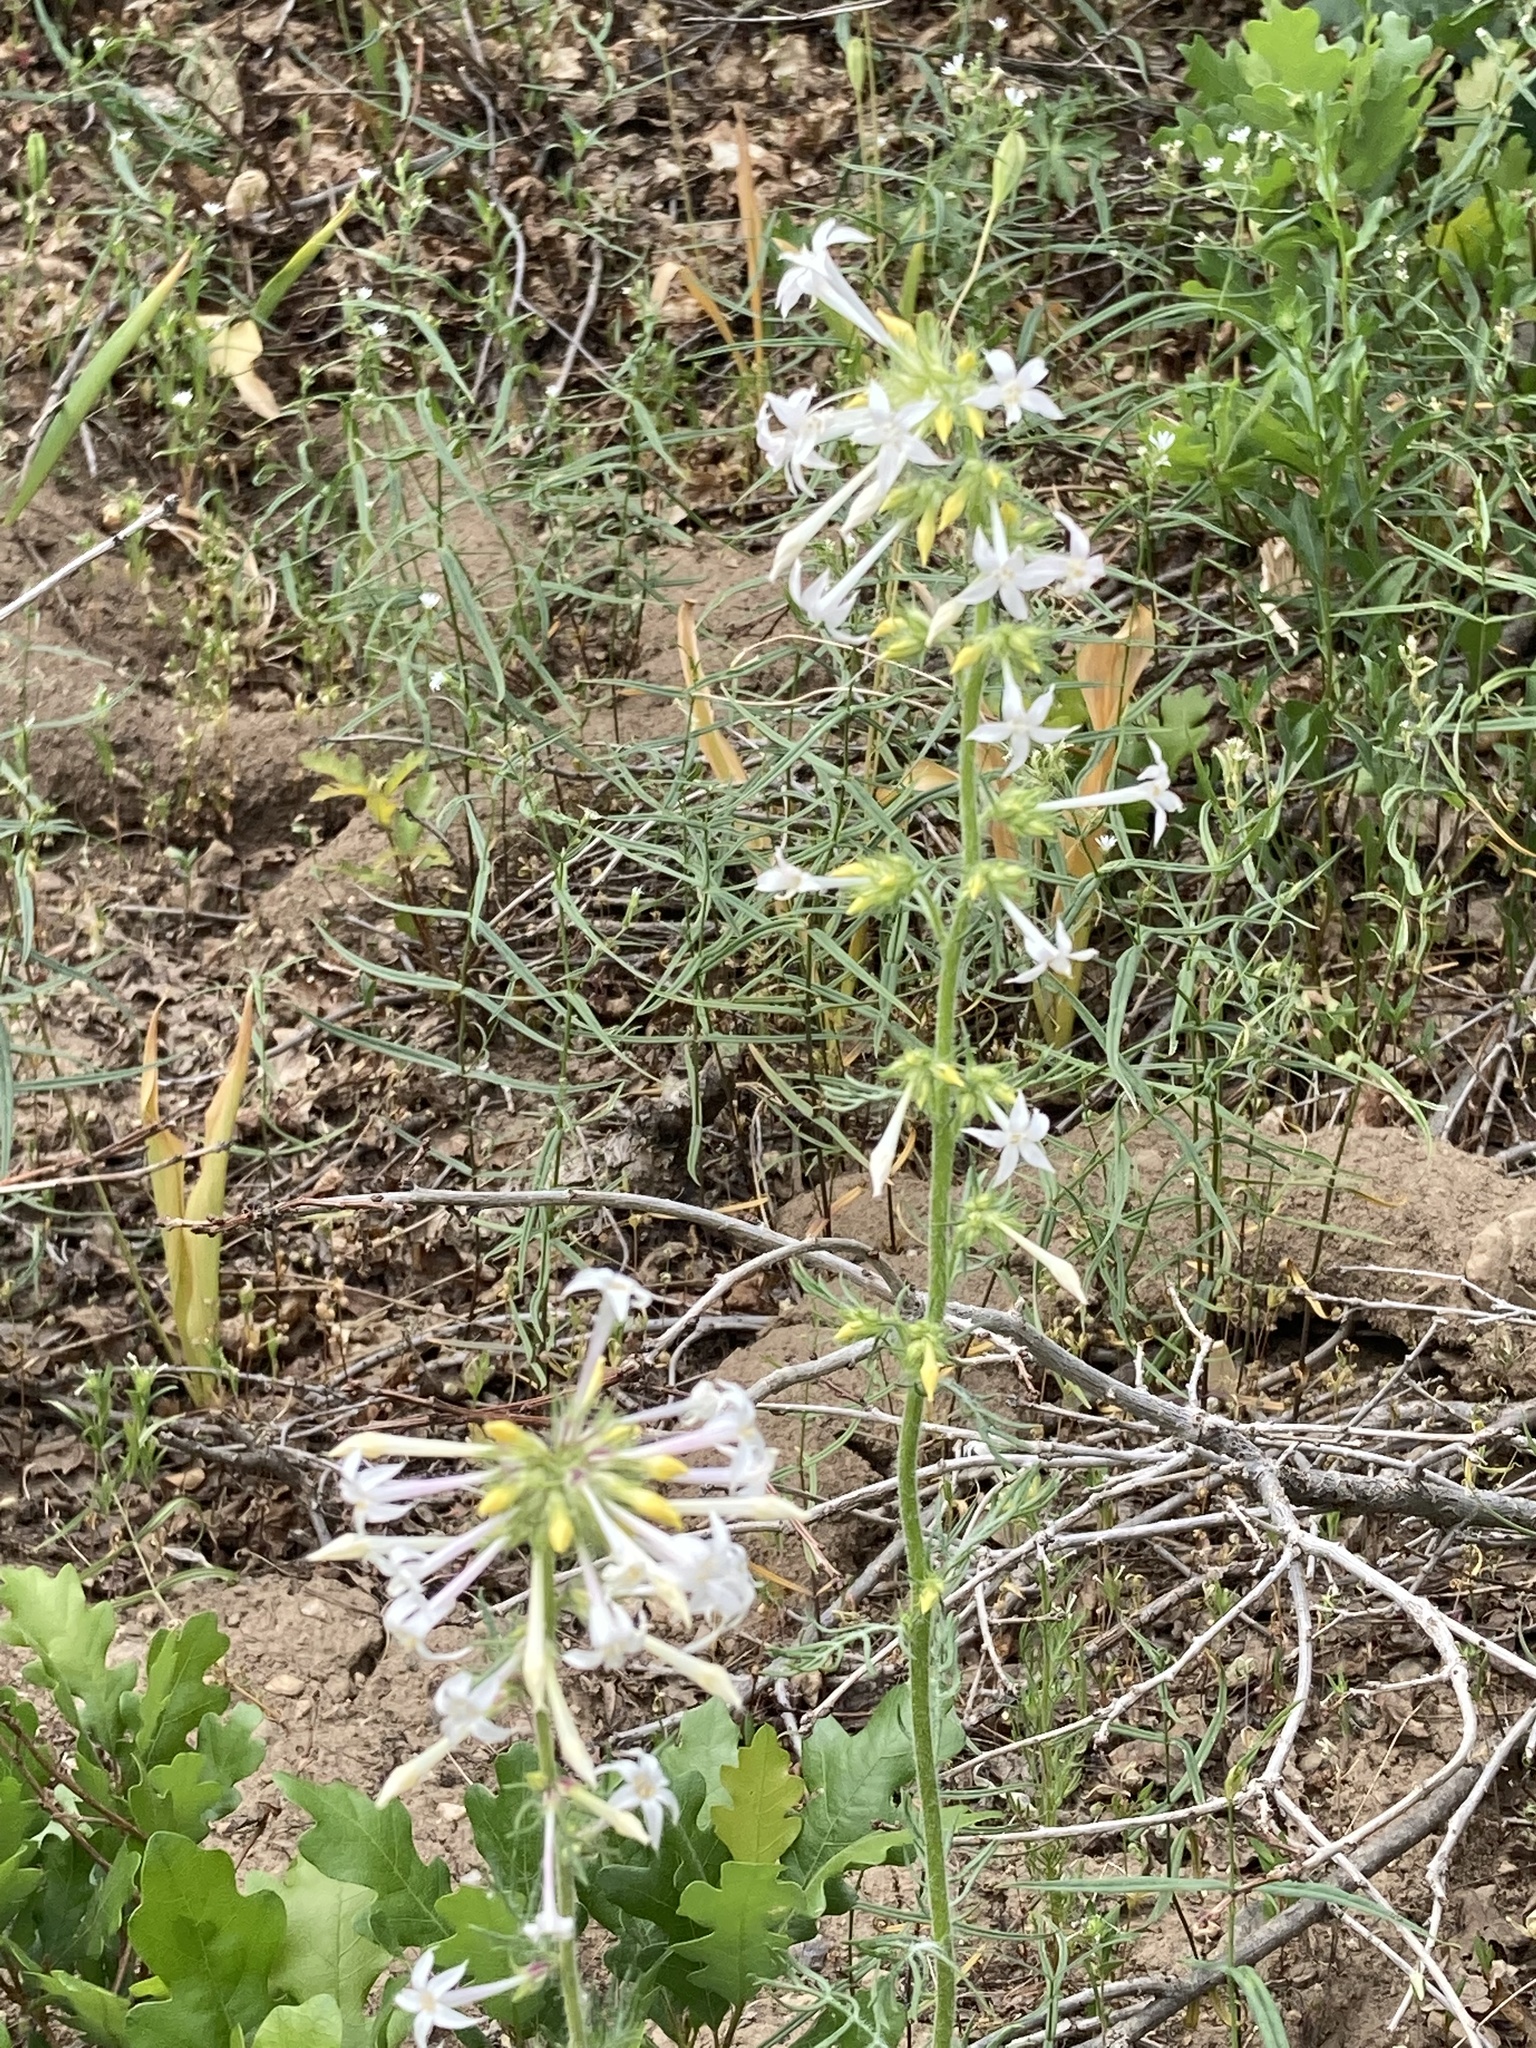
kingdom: Plantae
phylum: Tracheophyta
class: Magnoliopsida
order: Ericales
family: Polemoniaceae
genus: Ipomopsis
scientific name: Ipomopsis aggregata
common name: Scarlet gilia
